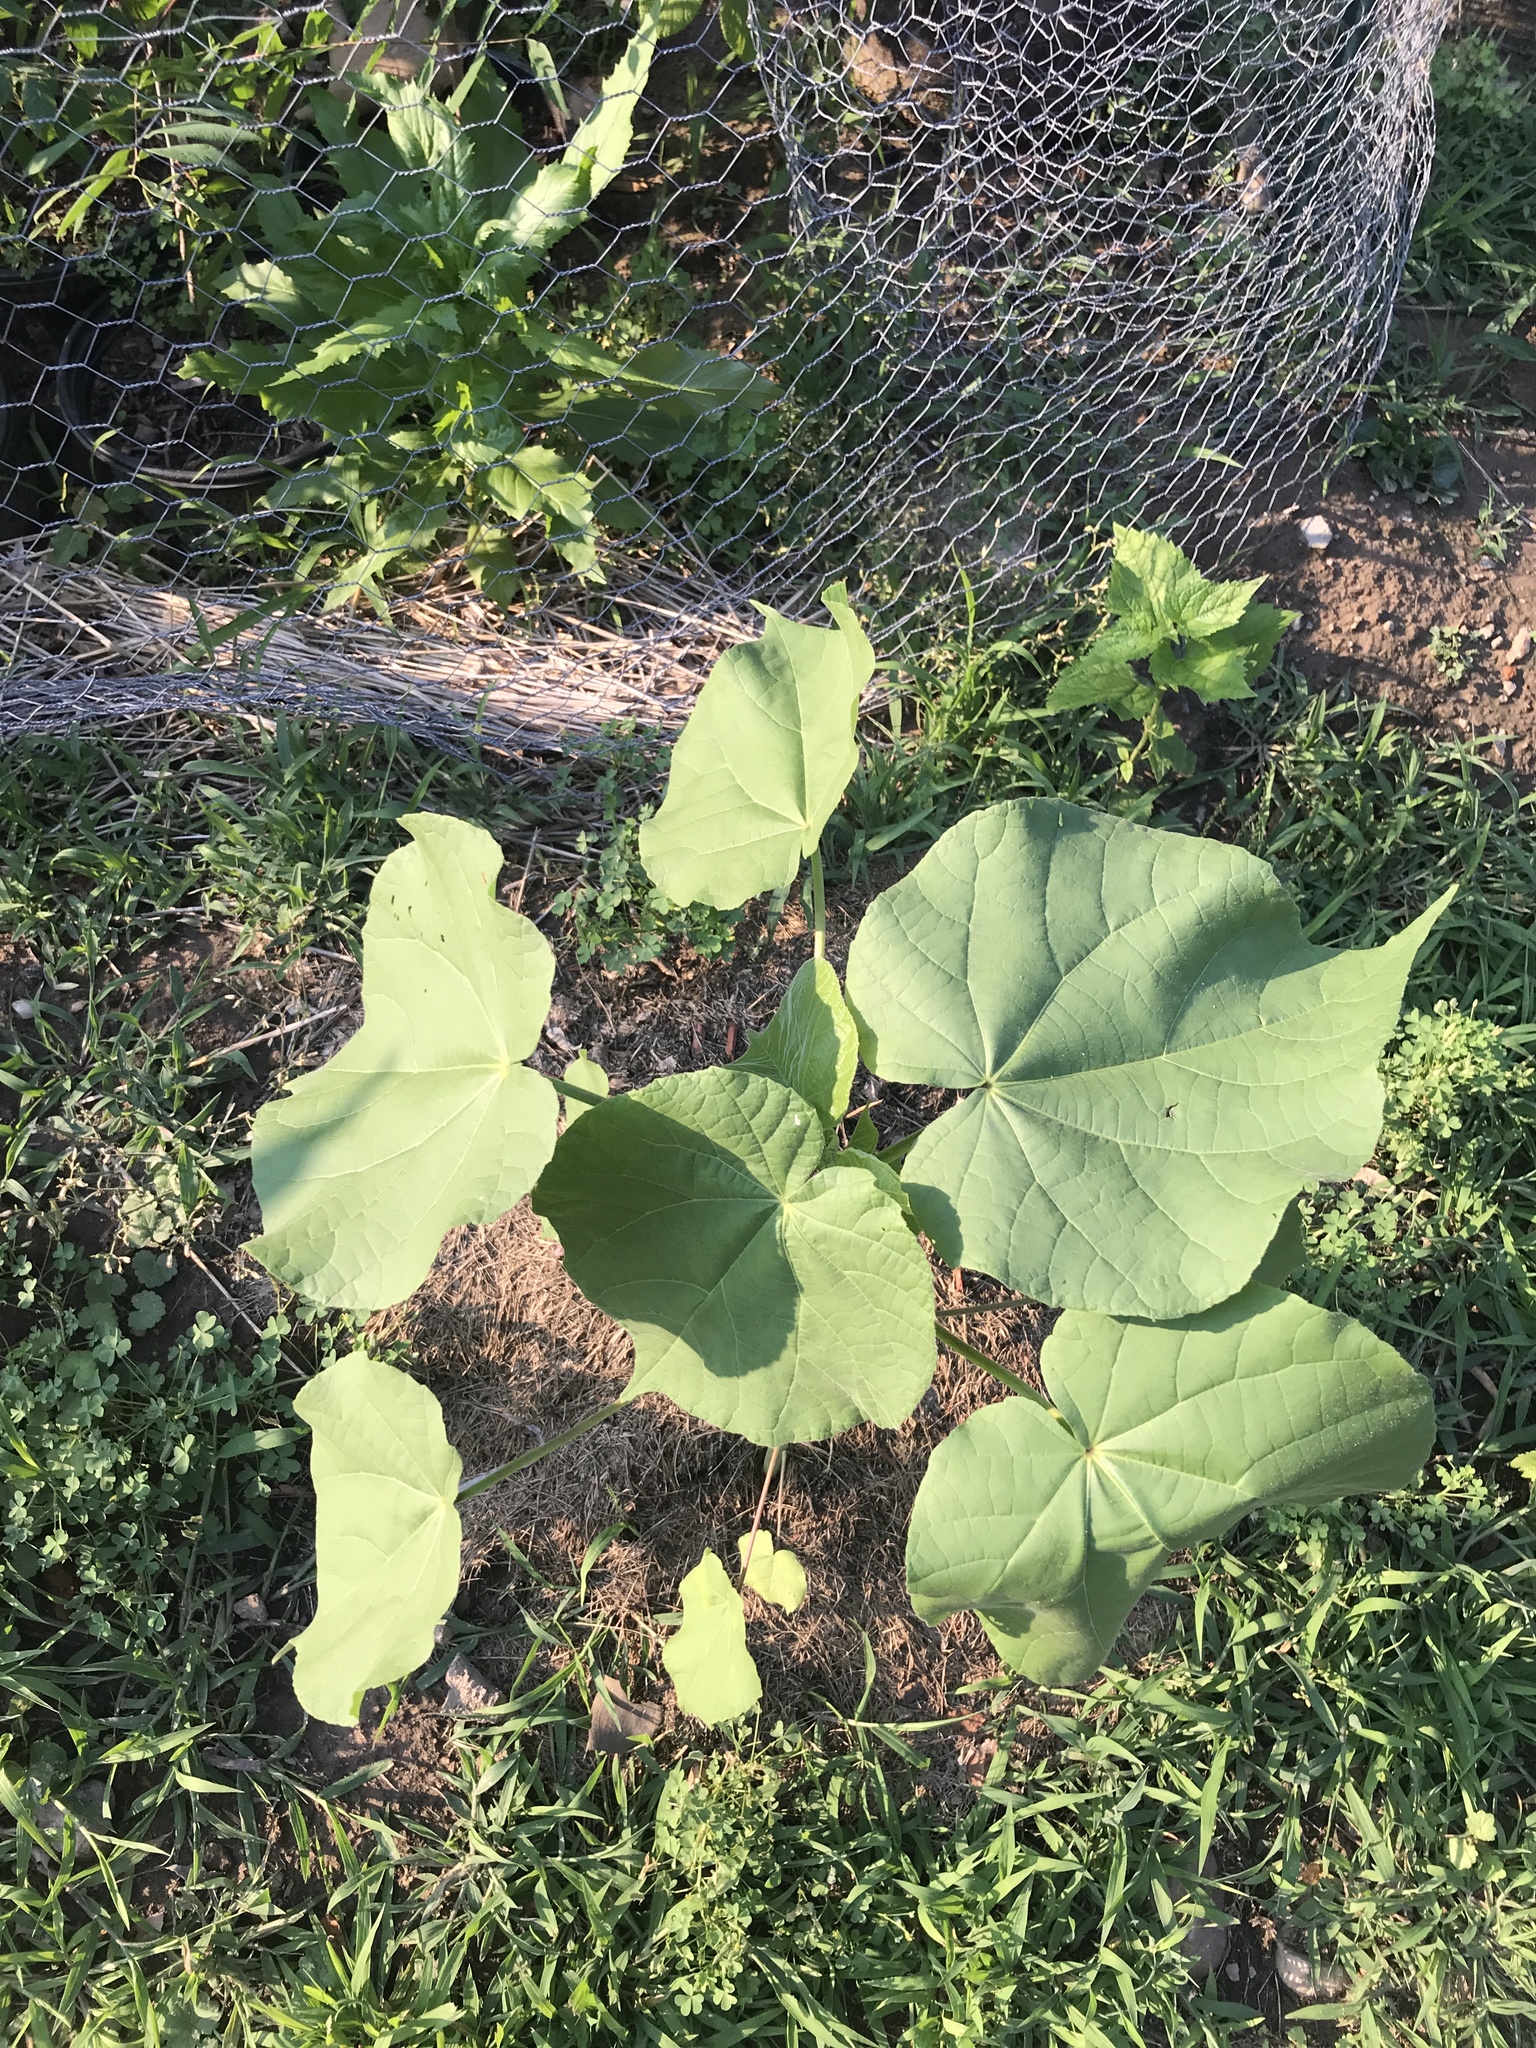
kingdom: Plantae
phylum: Tracheophyta
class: Magnoliopsida
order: Malvales
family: Malvaceae
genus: Abutilon
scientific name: Abutilon theophrasti
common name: Velvetleaf
